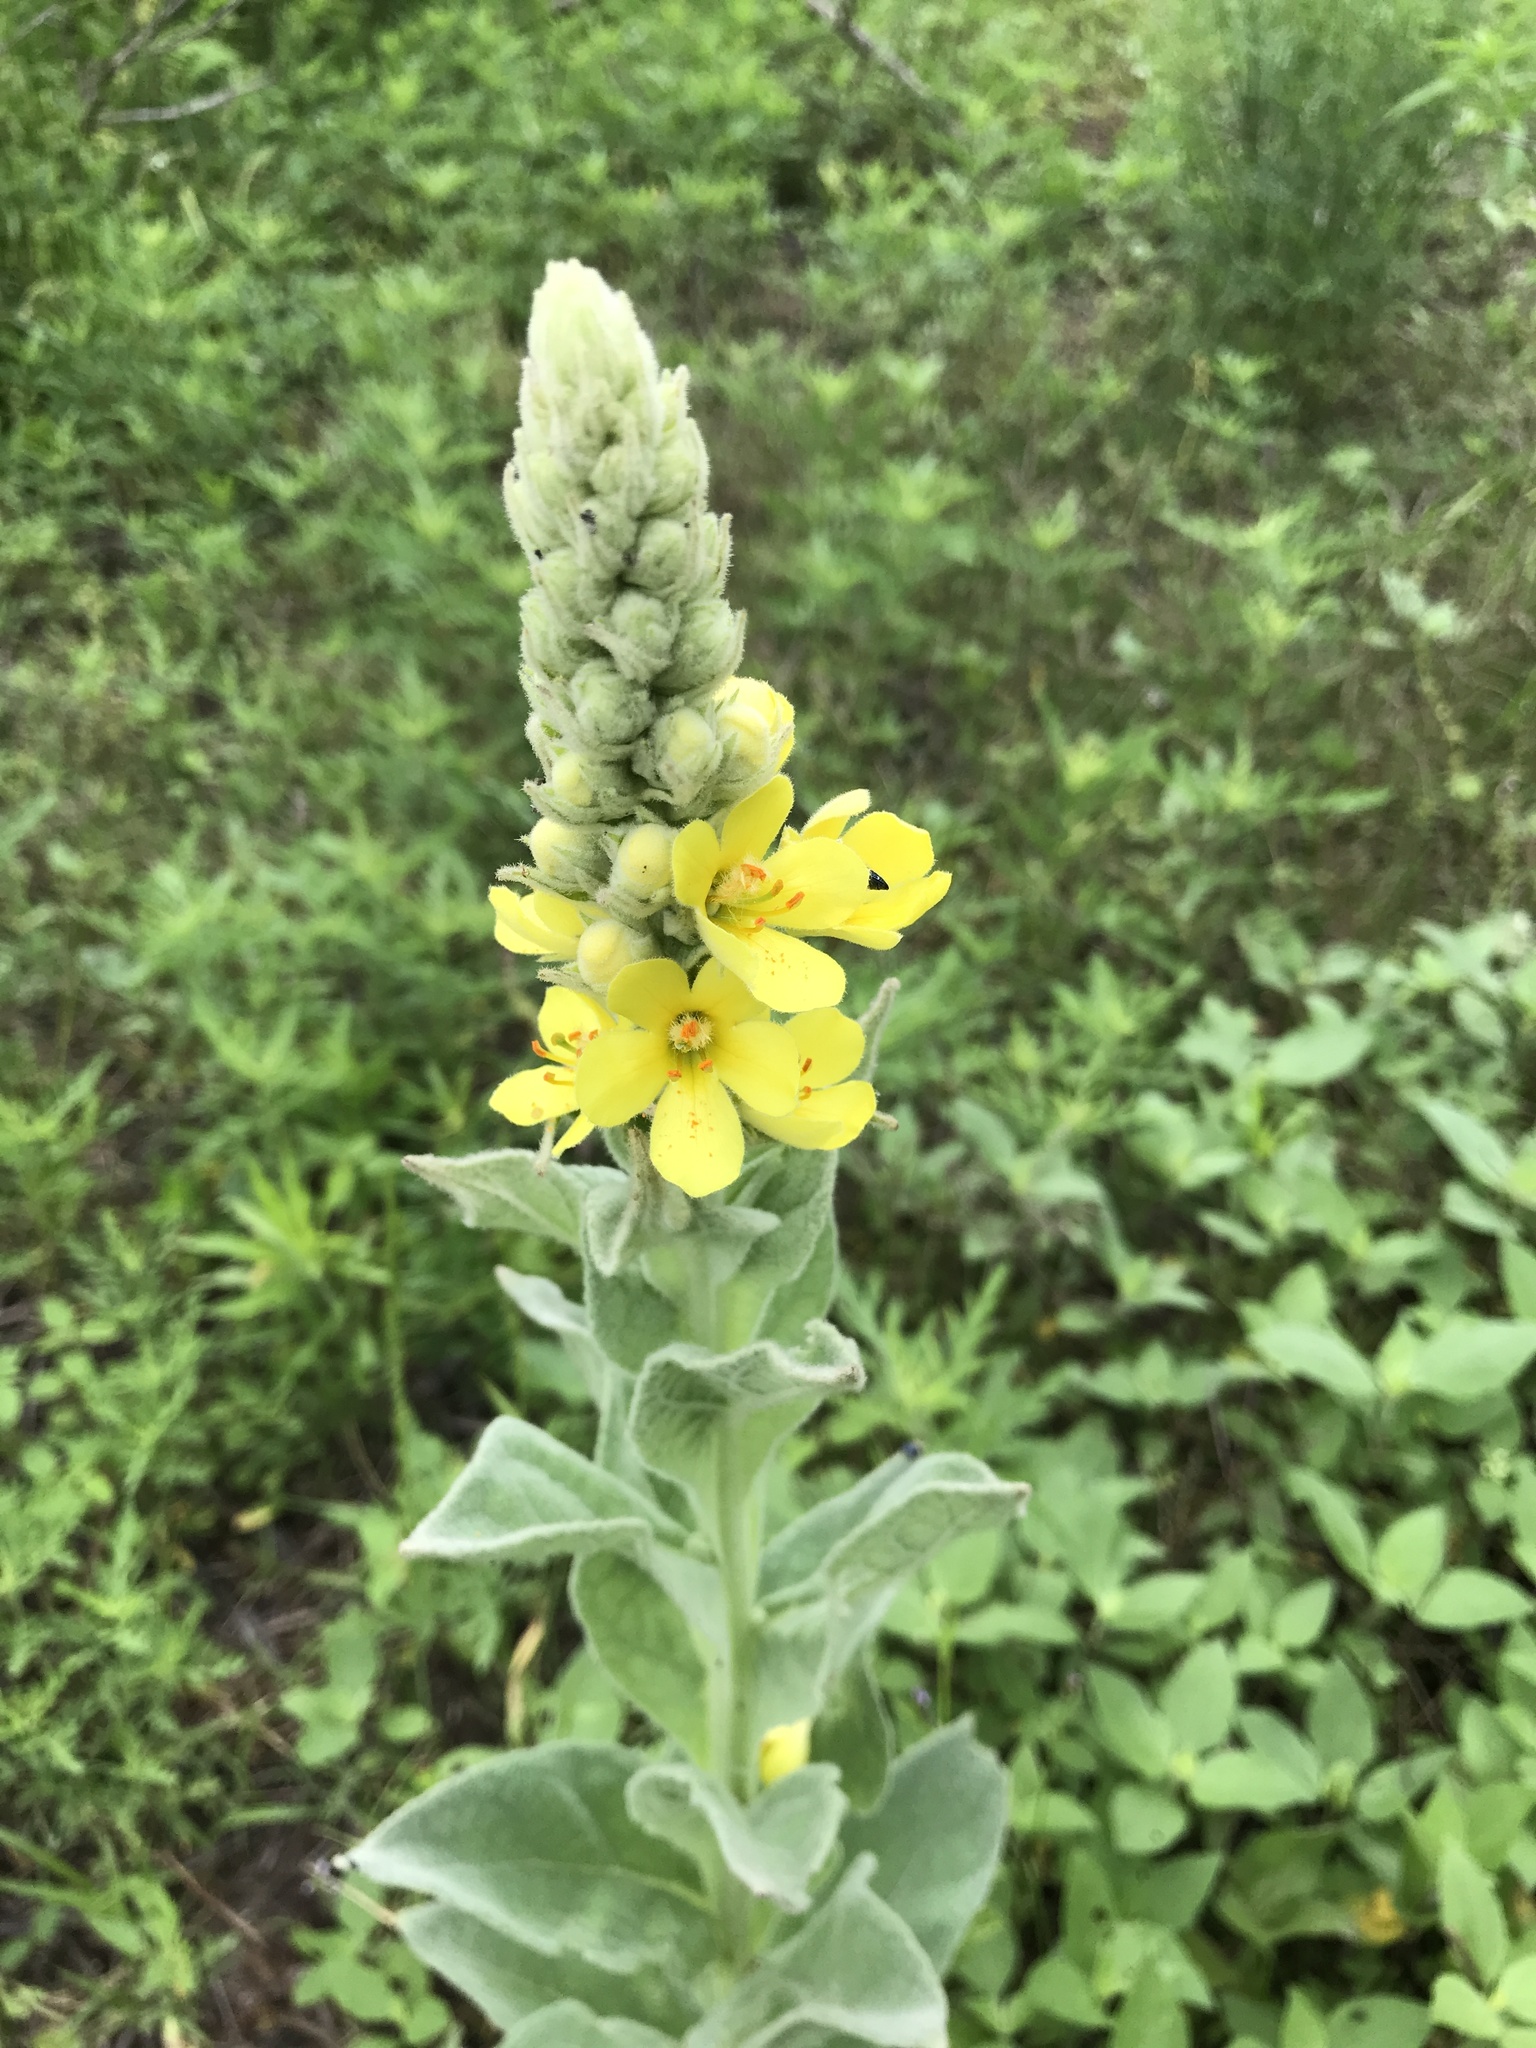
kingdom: Plantae
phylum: Tracheophyta
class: Magnoliopsida
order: Lamiales
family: Scrophulariaceae
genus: Verbascum
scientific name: Verbascum thapsus
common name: Common mullein
